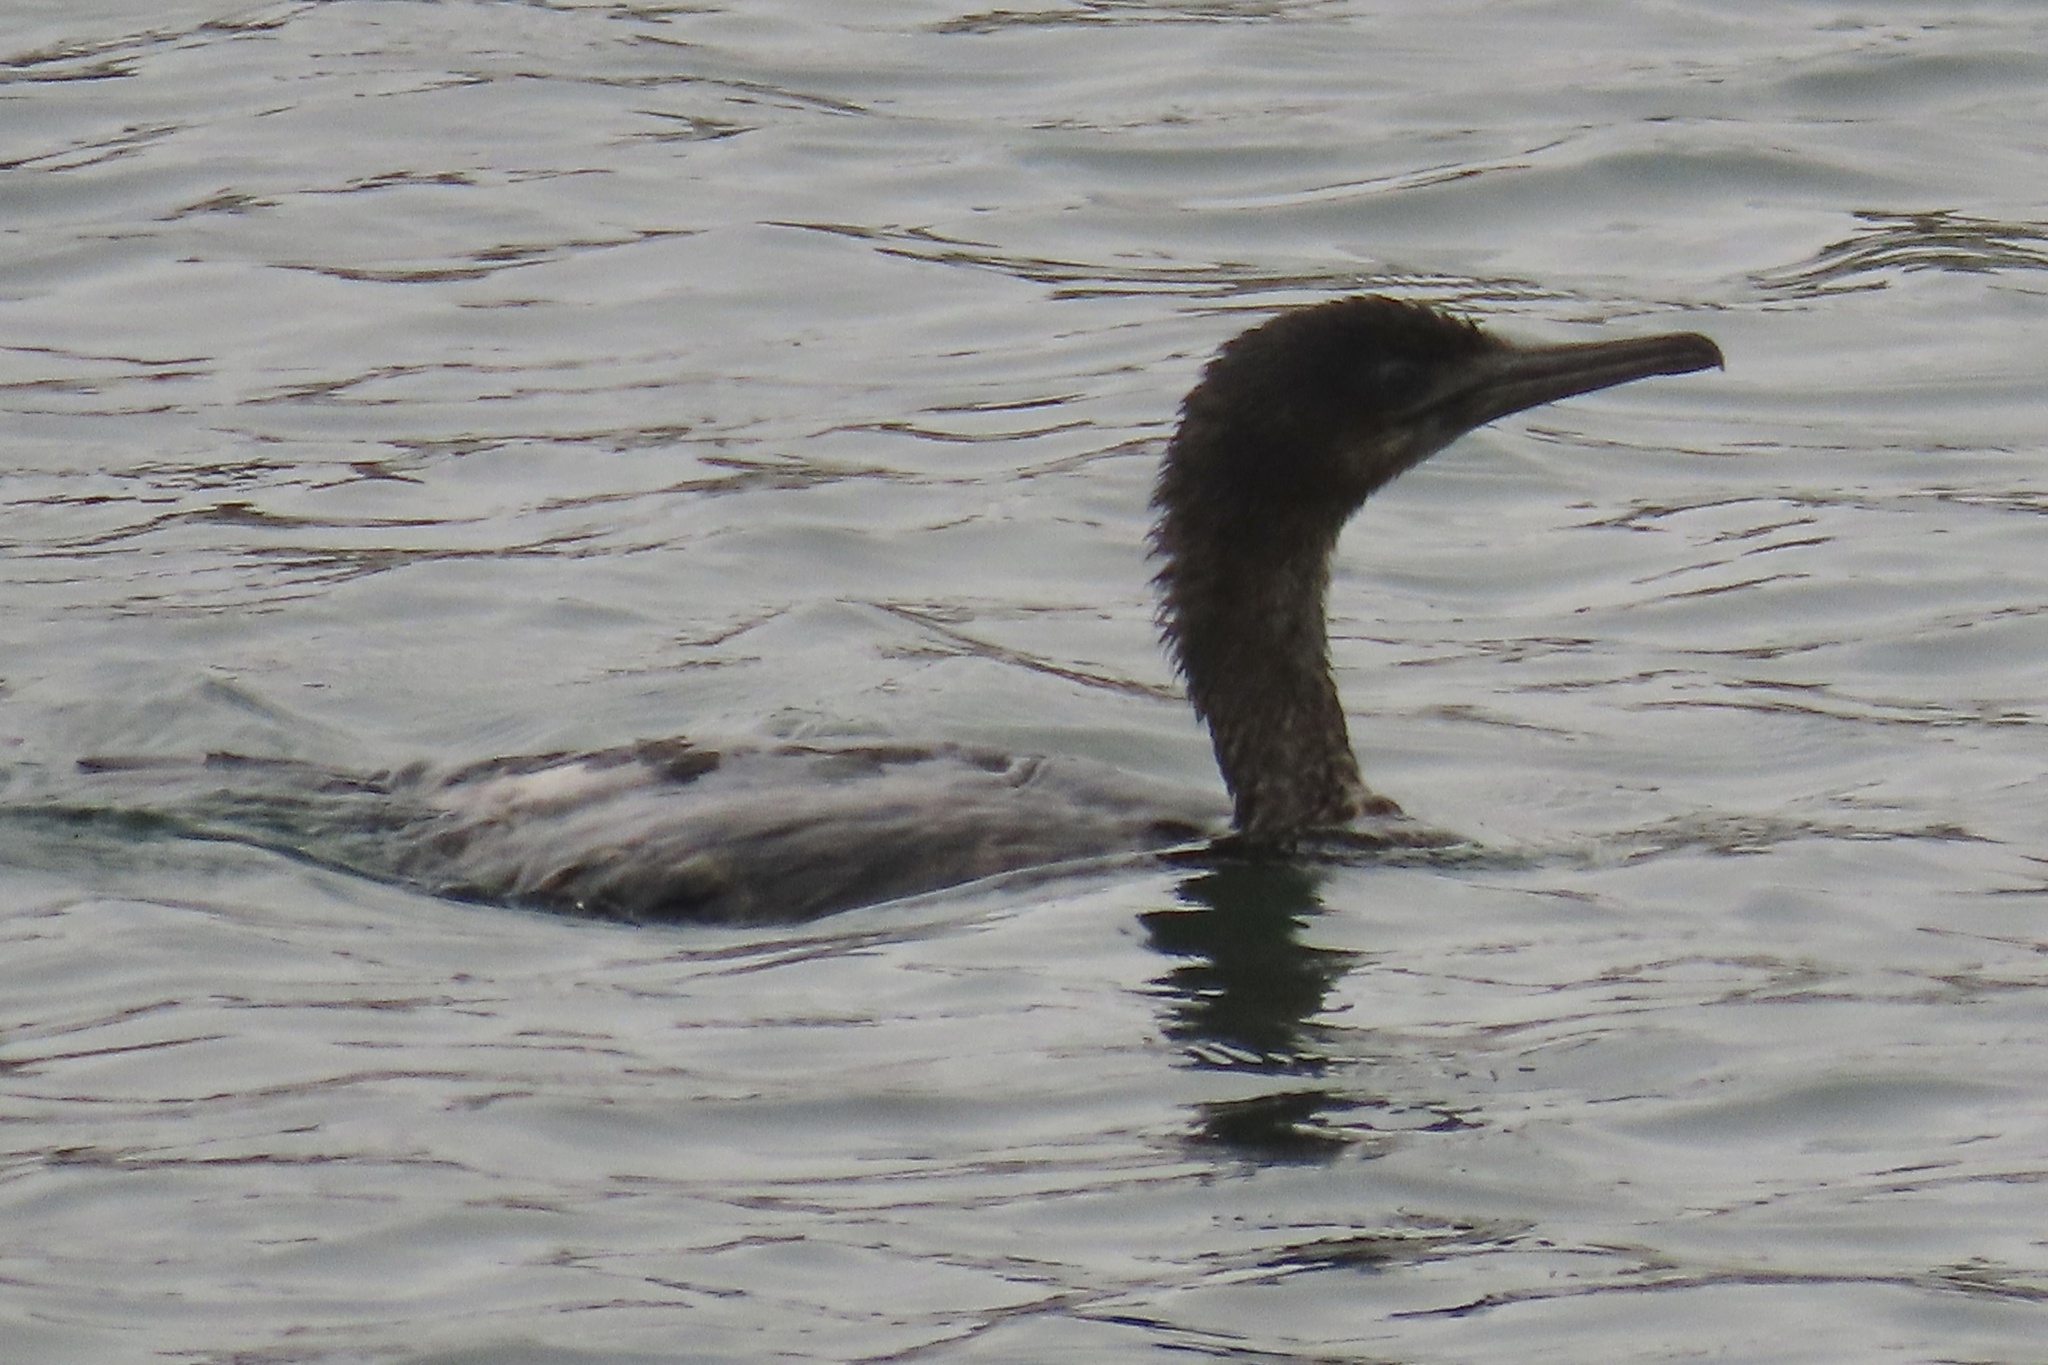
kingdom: Animalia
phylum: Chordata
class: Aves
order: Suliformes
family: Phalacrocoracidae
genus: Urile
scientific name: Urile penicillatus
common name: Brandt's cormorant
